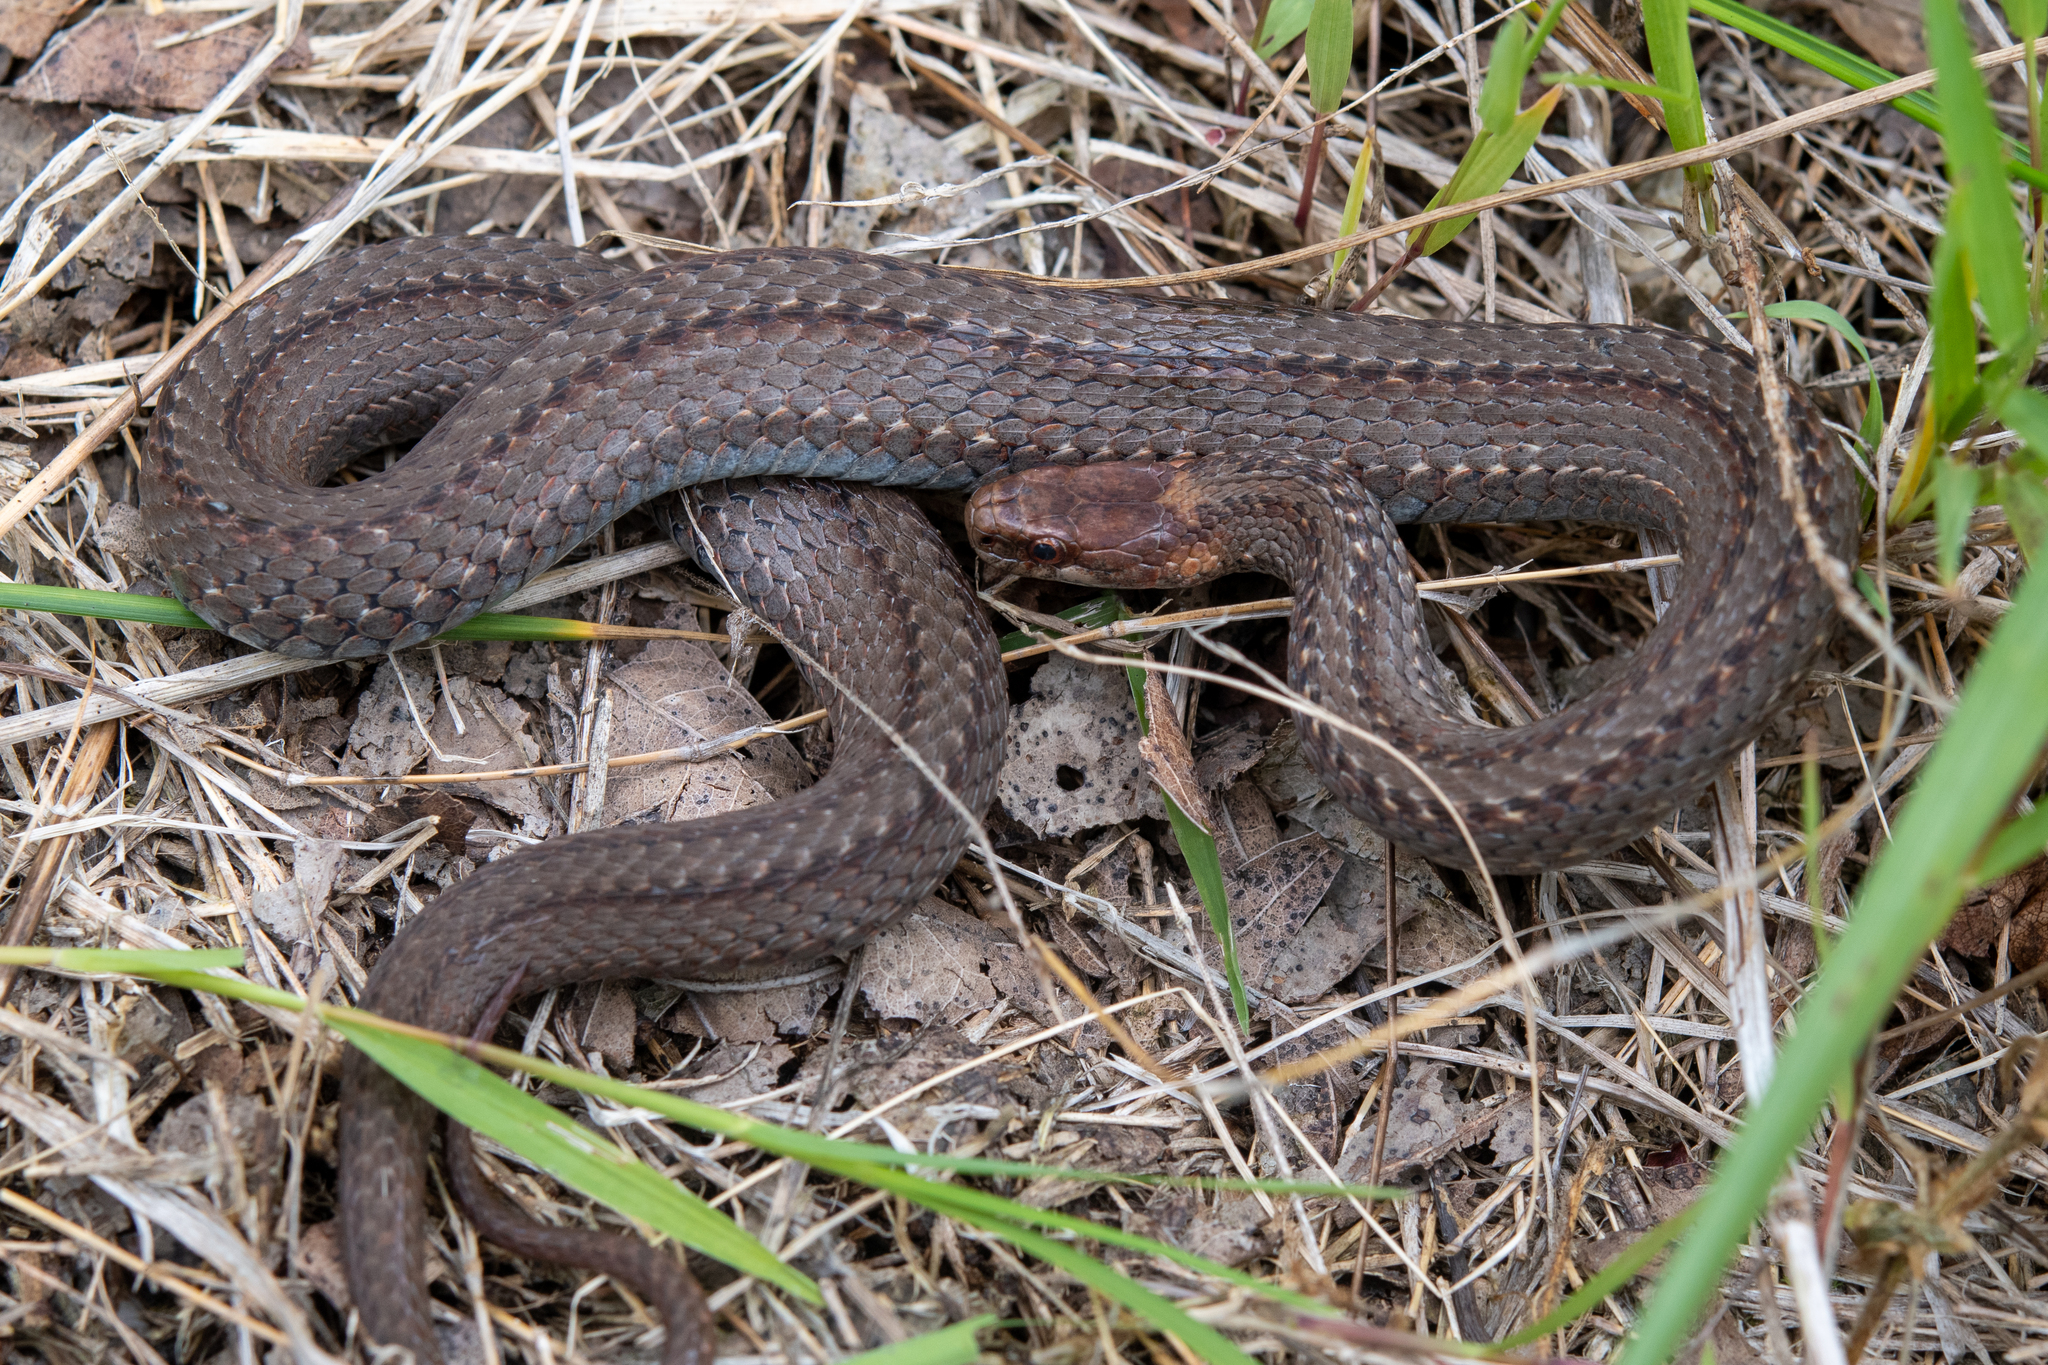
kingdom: Animalia
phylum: Chordata
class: Squamata
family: Colubridae
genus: Storeria
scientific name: Storeria occipitomaculata
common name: Redbelly snake
